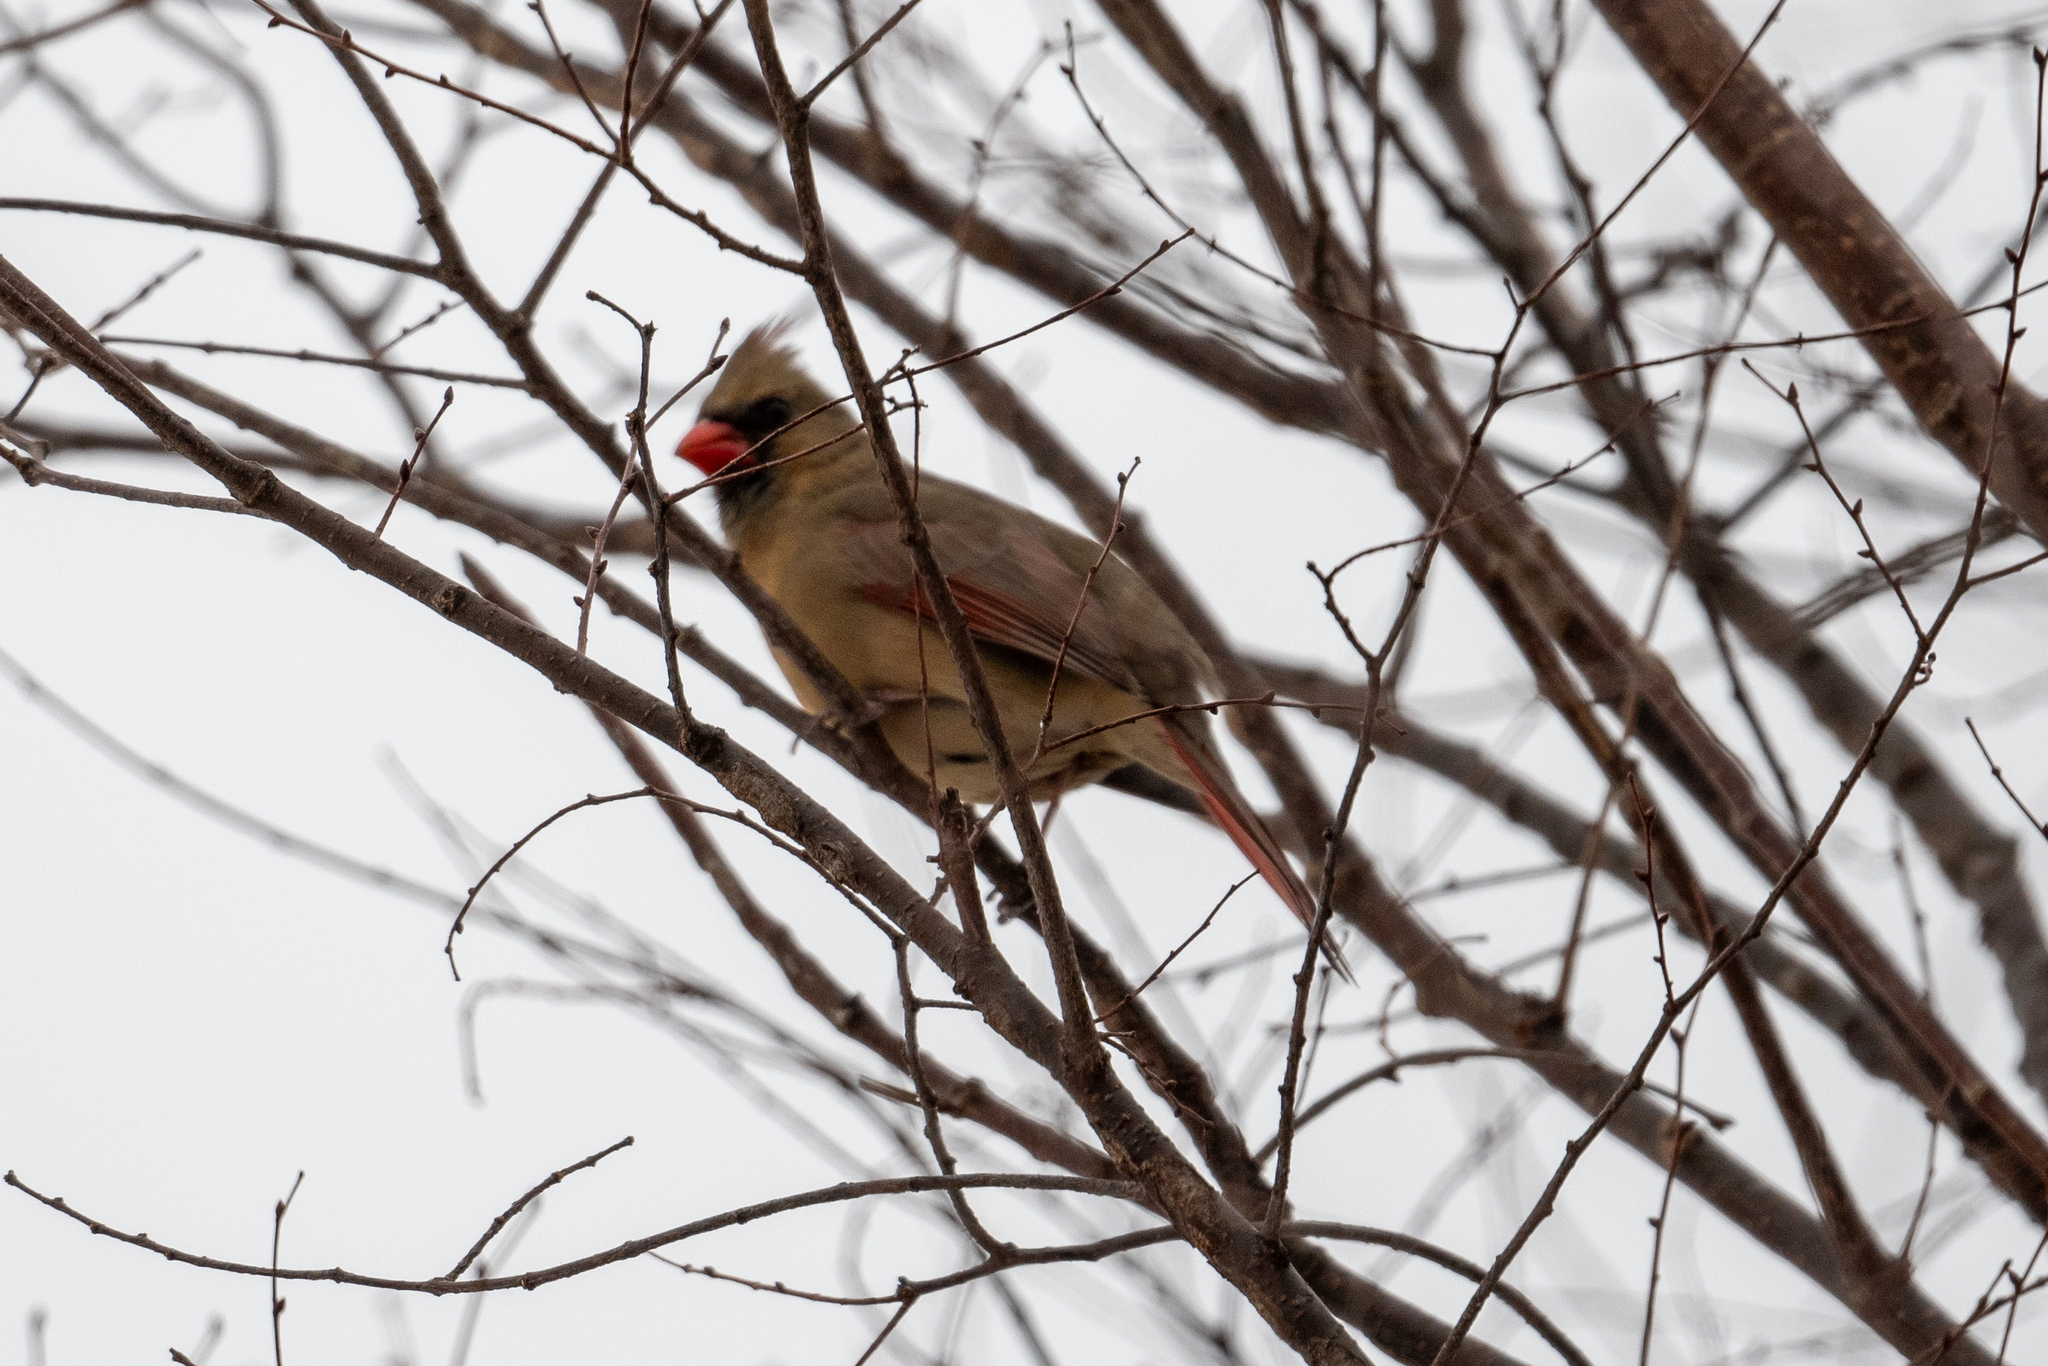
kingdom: Animalia
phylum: Chordata
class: Aves
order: Passeriformes
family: Cardinalidae
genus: Cardinalis
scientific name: Cardinalis cardinalis
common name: Northern cardinal
